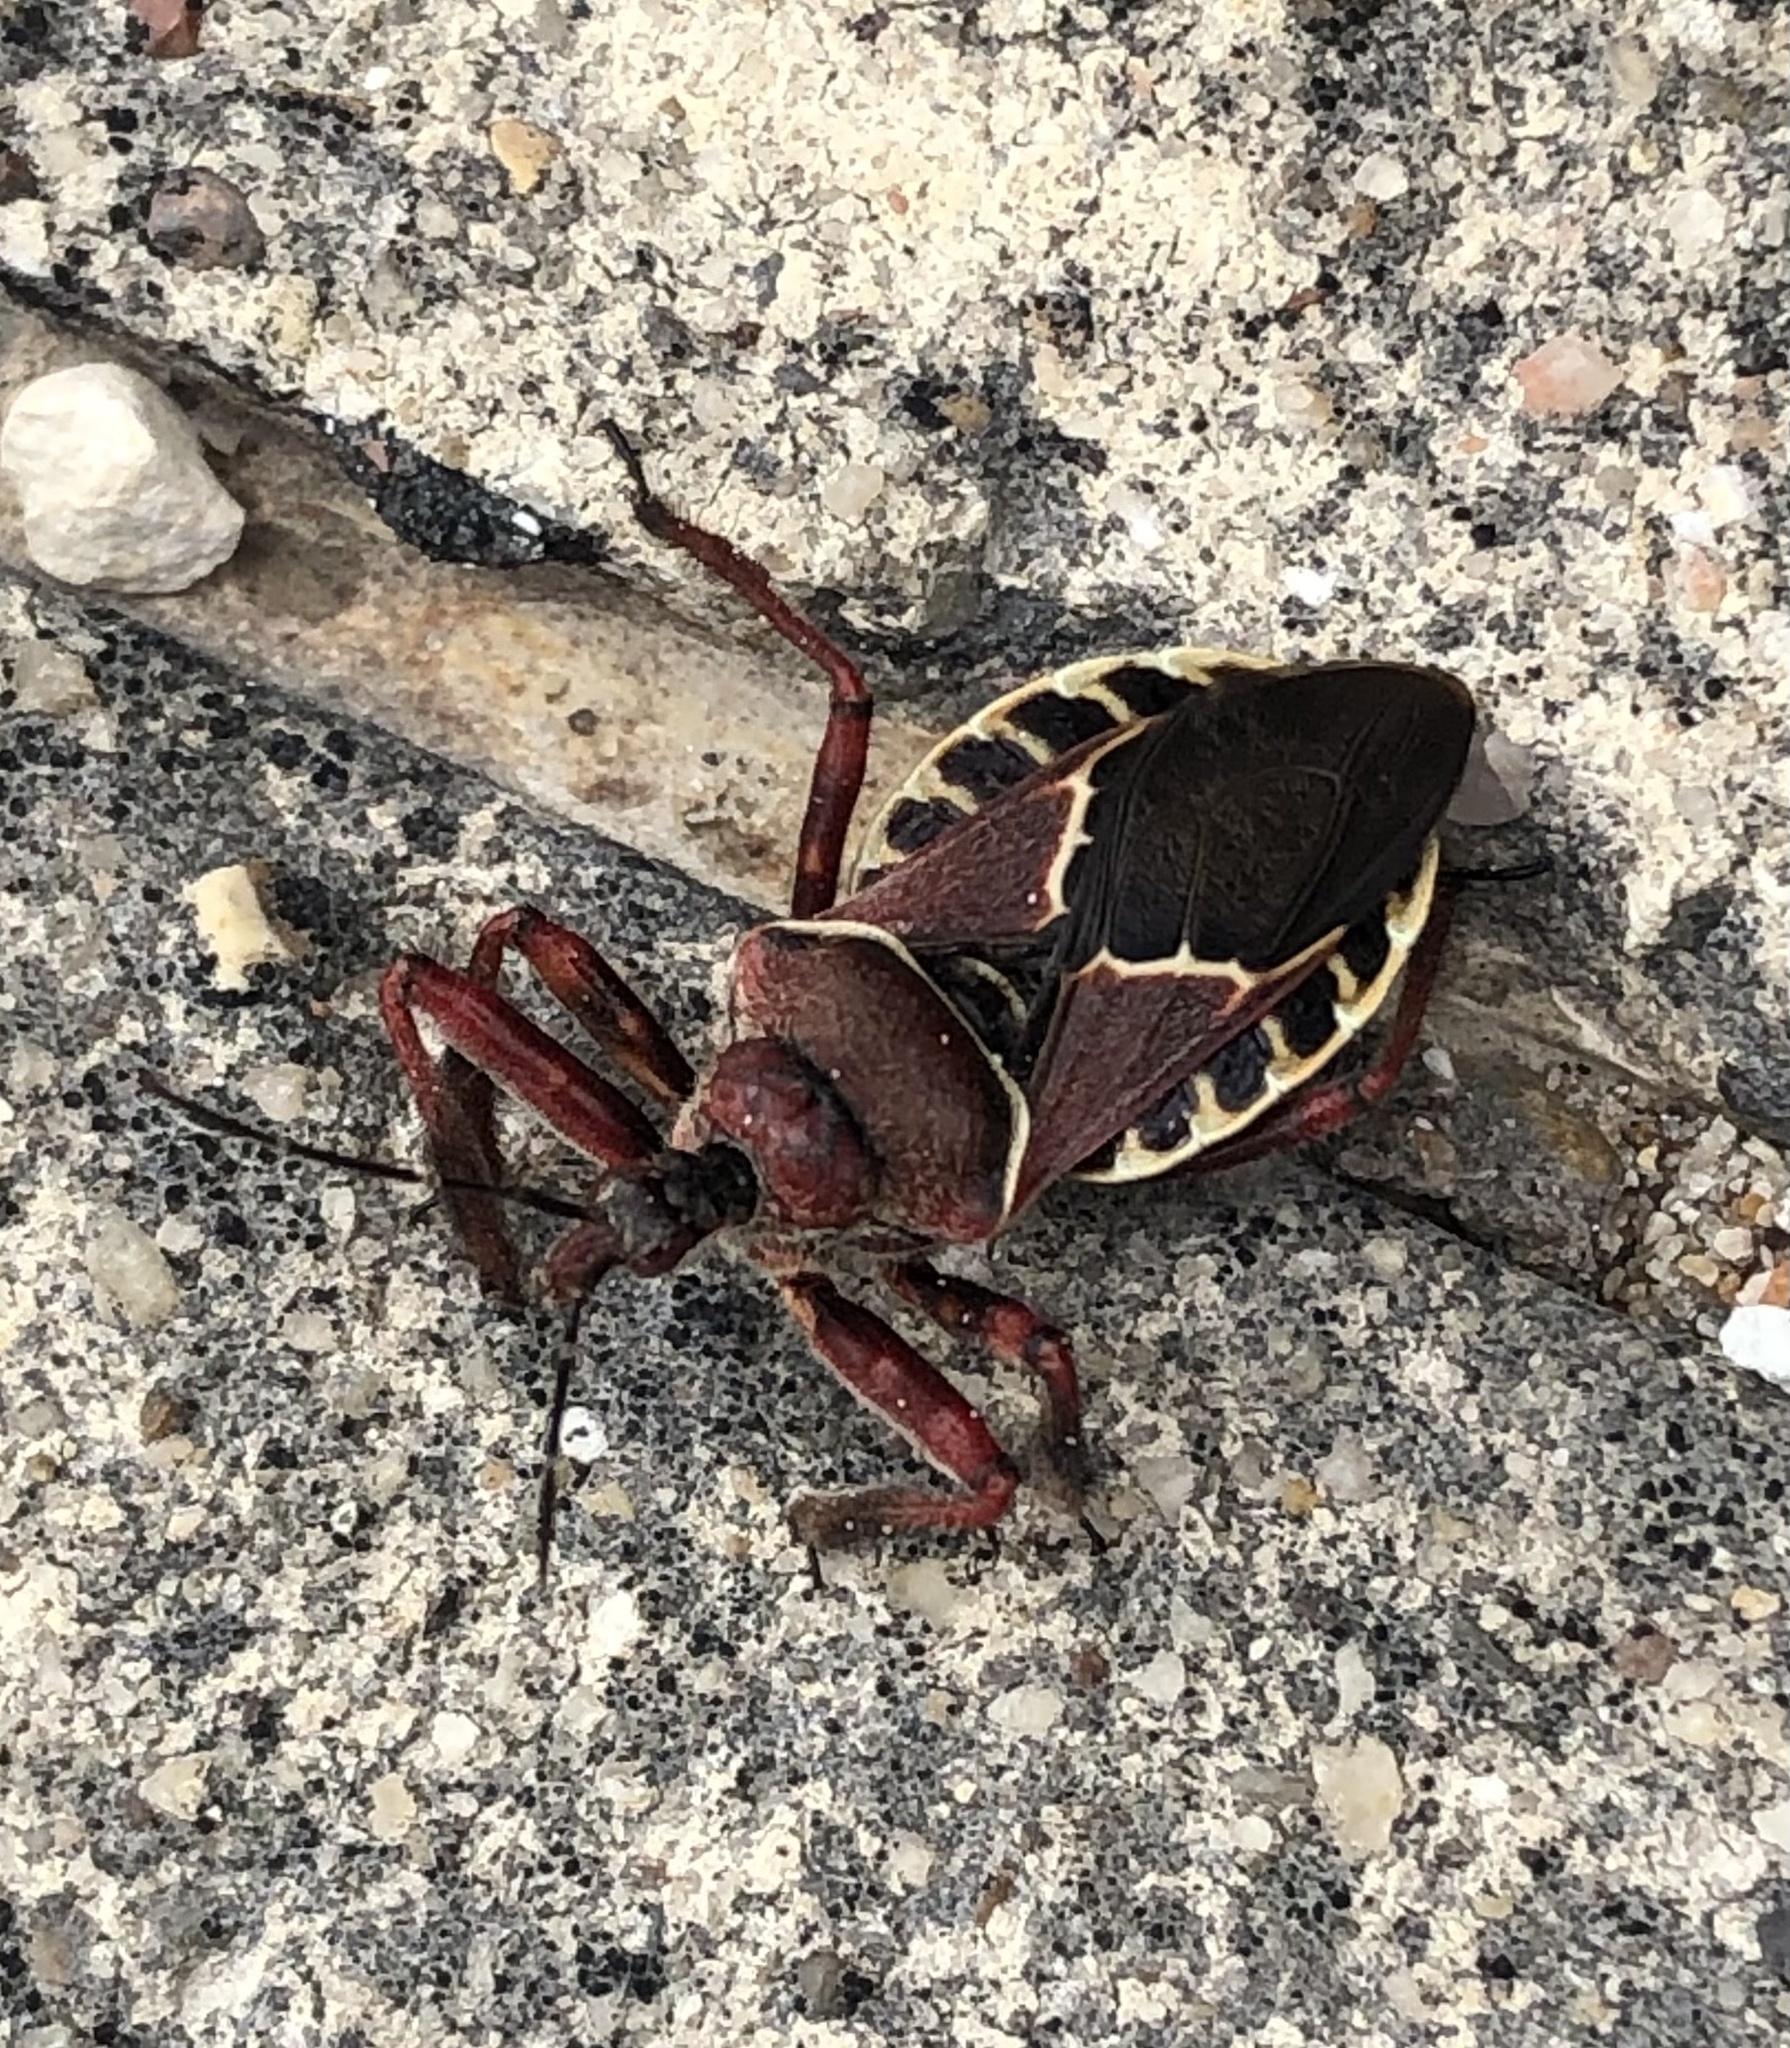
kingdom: Animalia
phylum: Arthropoda
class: Insecta
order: Hemiptera
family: Reduviidae
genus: Apiomerus
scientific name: Apiomerus spissipes
